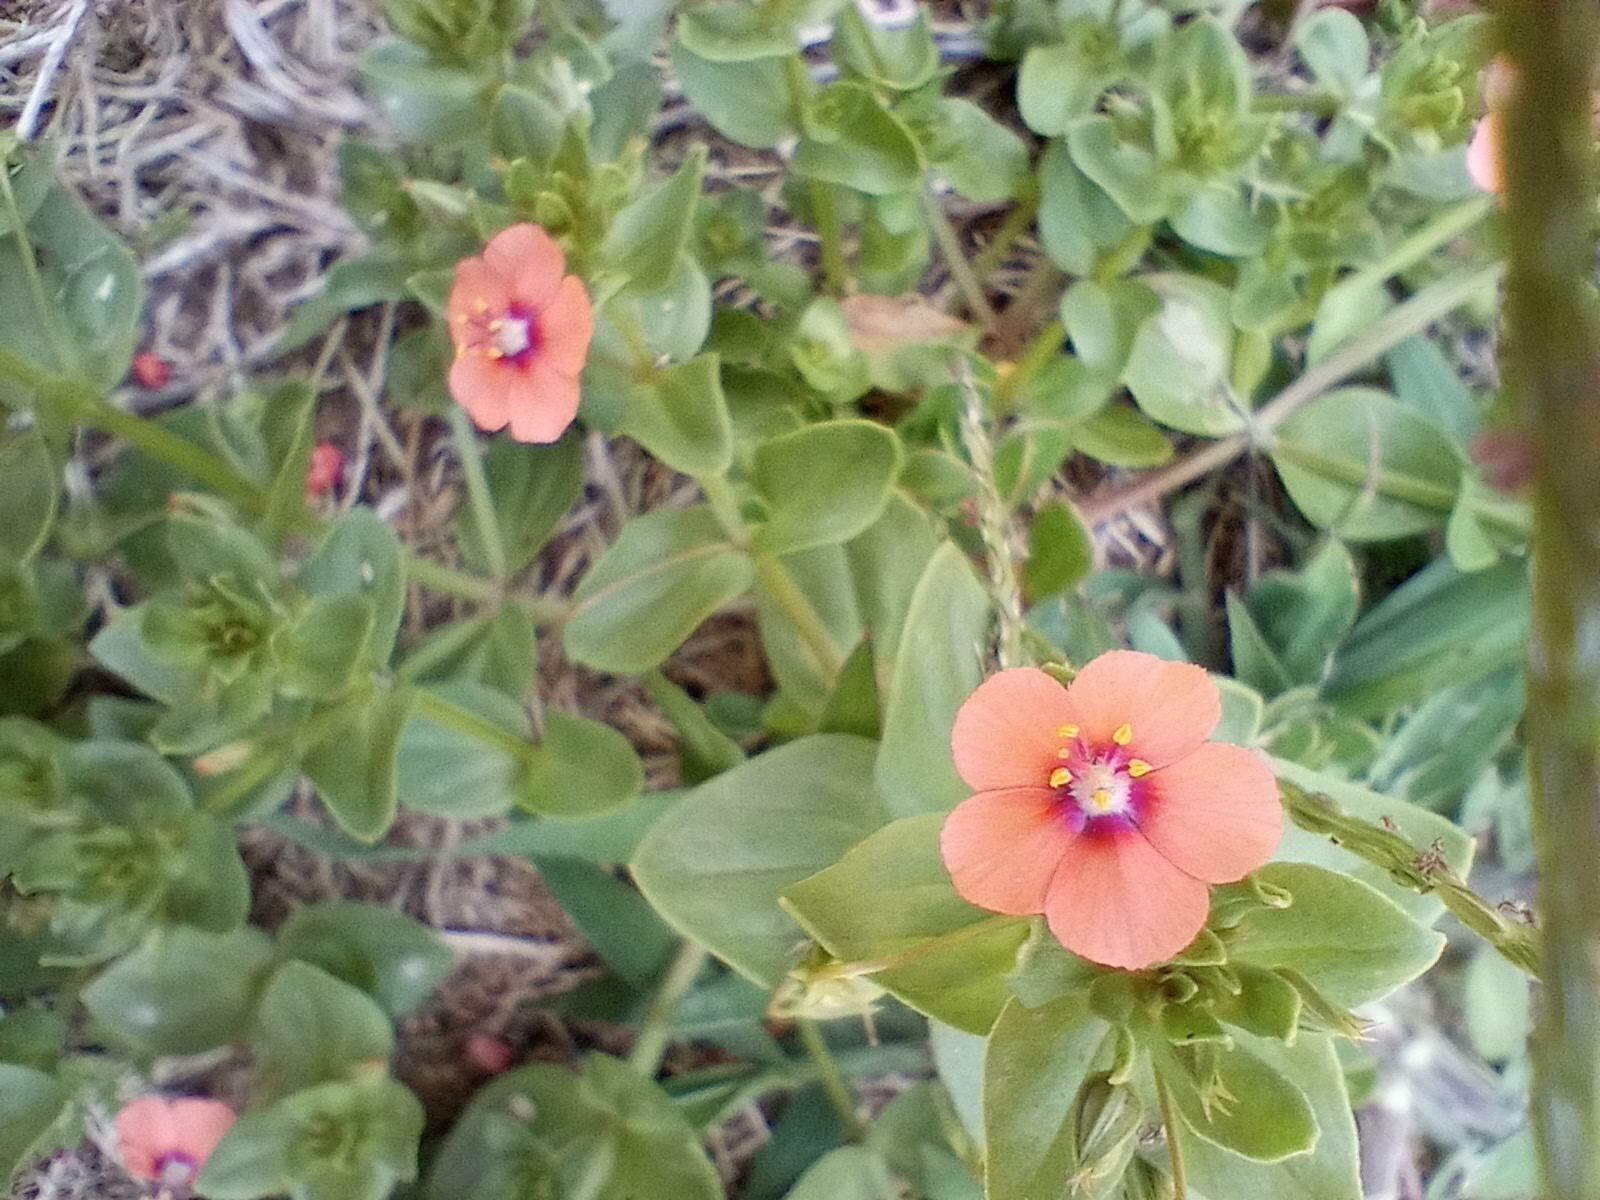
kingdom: Plantae
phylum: Tracheophyta
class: Magnoliopsida
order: Ericales
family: Primulaceae
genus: Lysimachia
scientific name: Lysimachia arvensis
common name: Scarlet pimpernel
